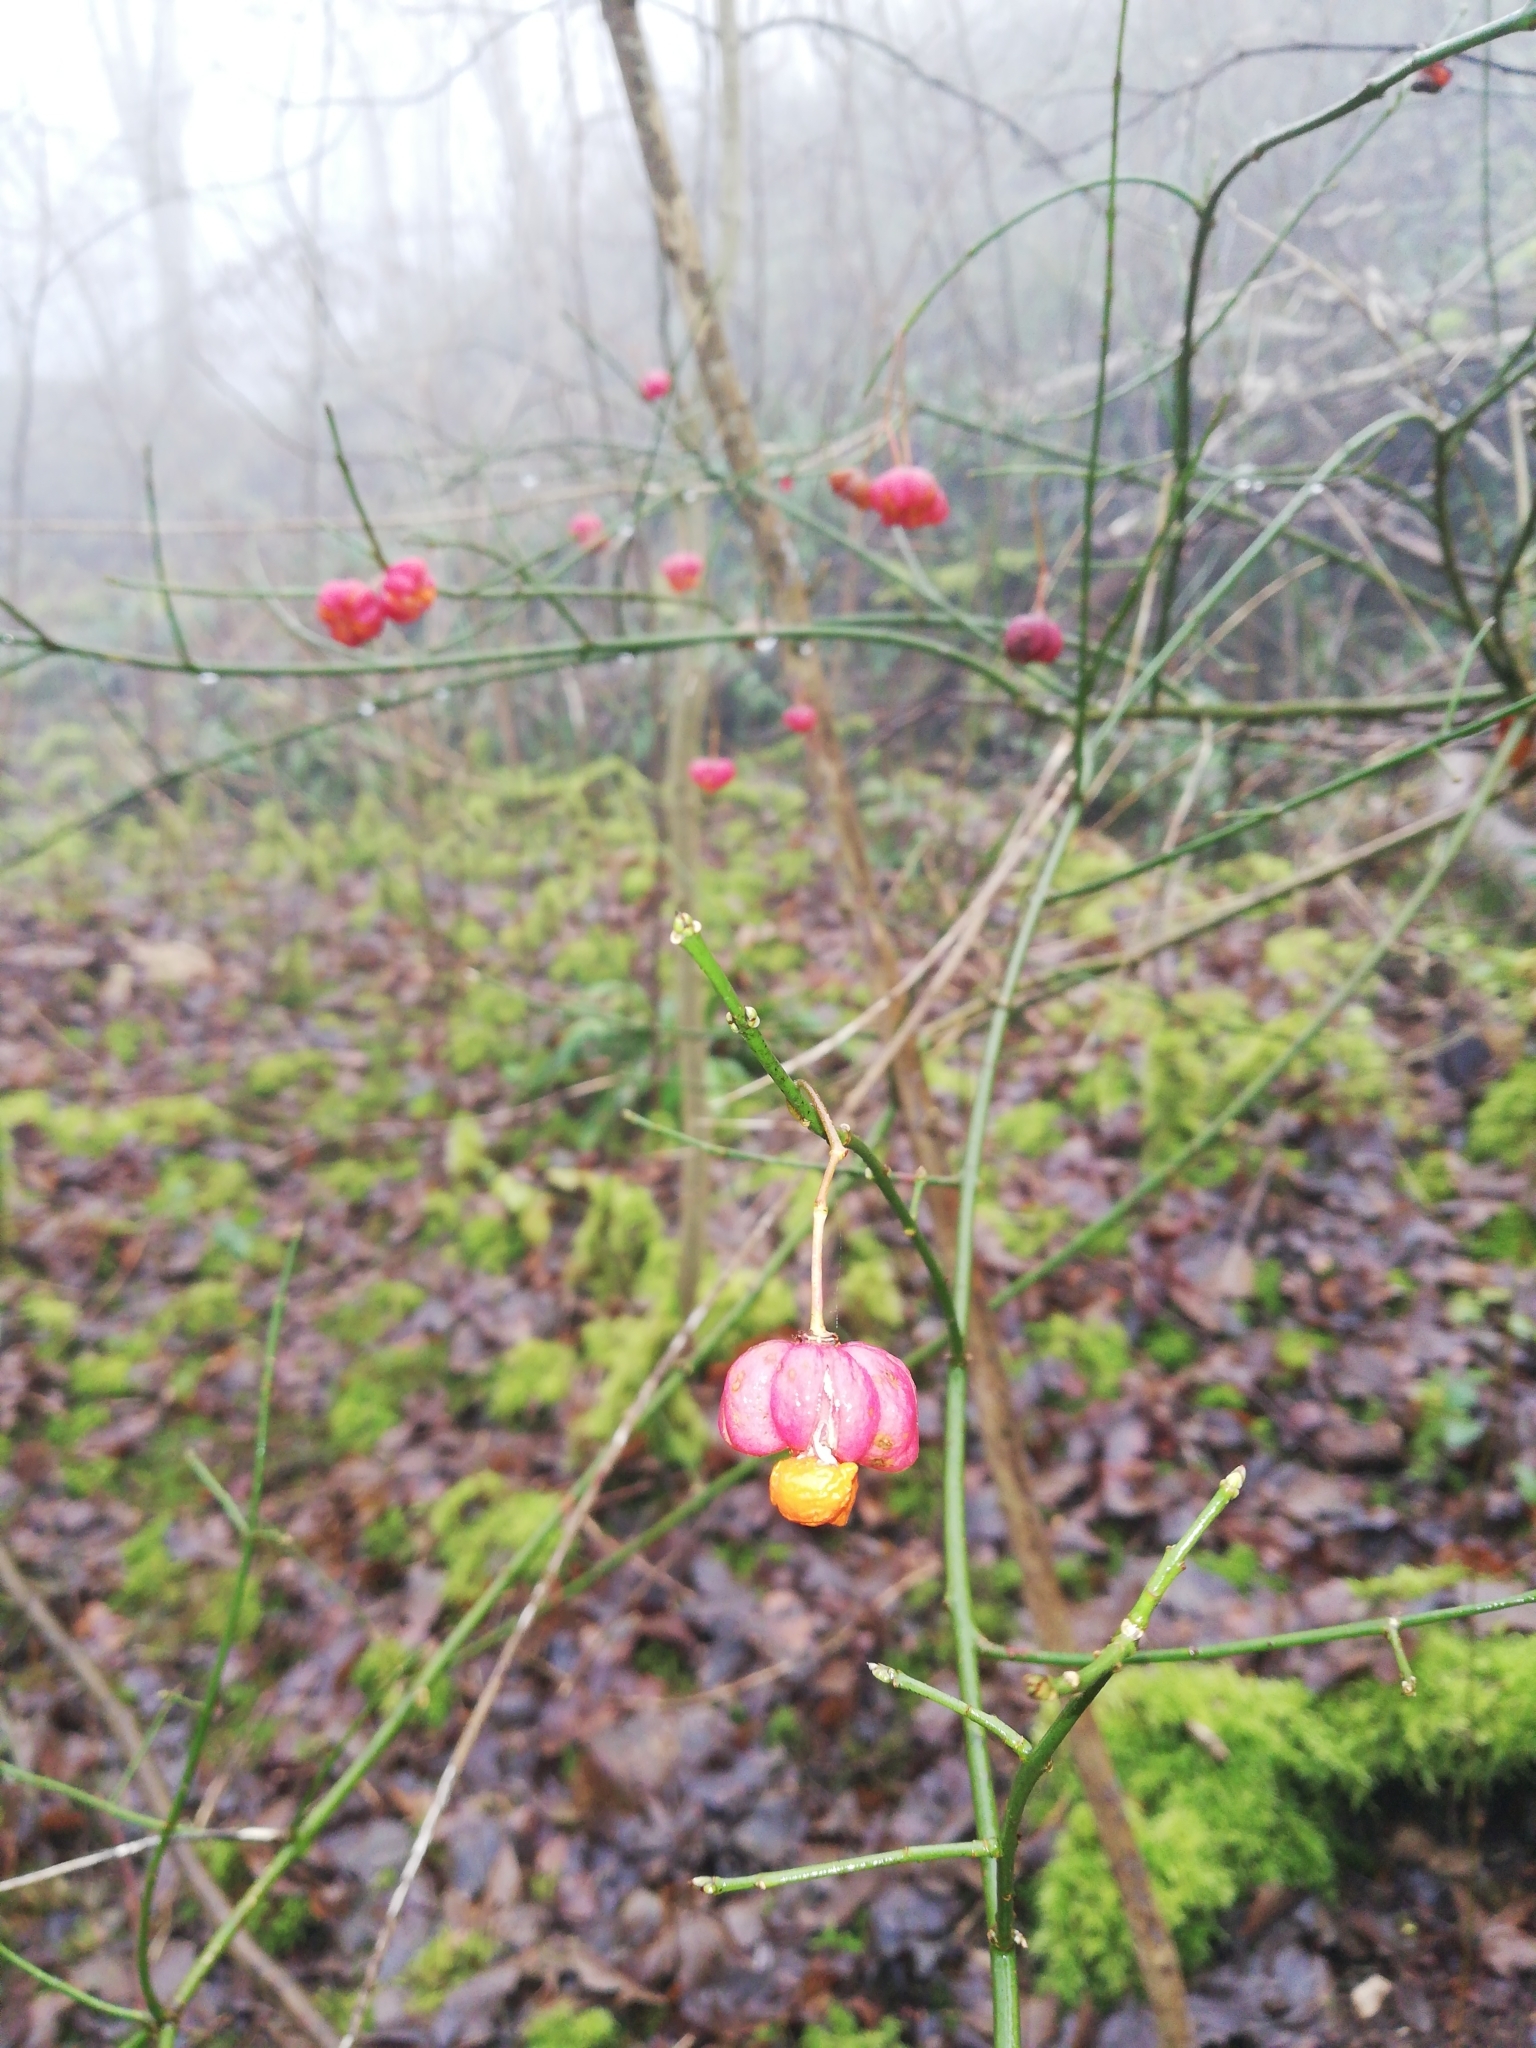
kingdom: Plantae
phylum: Tracheophyta
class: Magnoliopsida
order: Celastrales
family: Celastraceae
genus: Euonymus
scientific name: Euonymus europaeus
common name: Spindle
